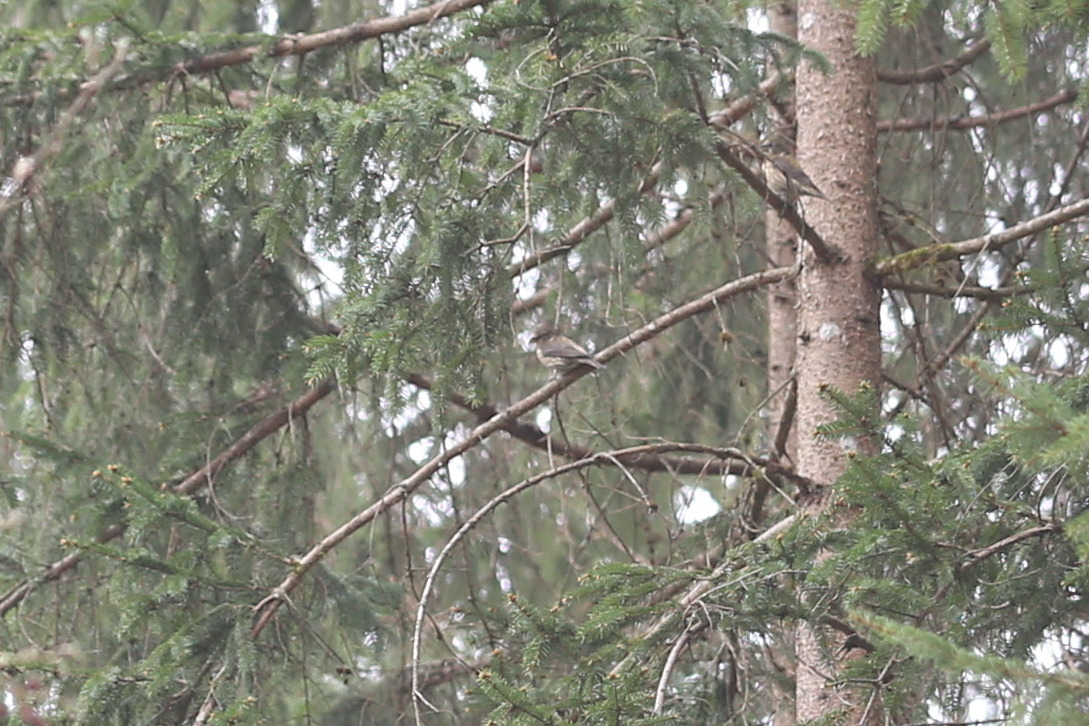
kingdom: Animalia
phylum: Chordata
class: Aves
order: Passeriformes
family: Fringillidae
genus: Loxia
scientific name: Loxia curvirostra
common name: Red crossbill
